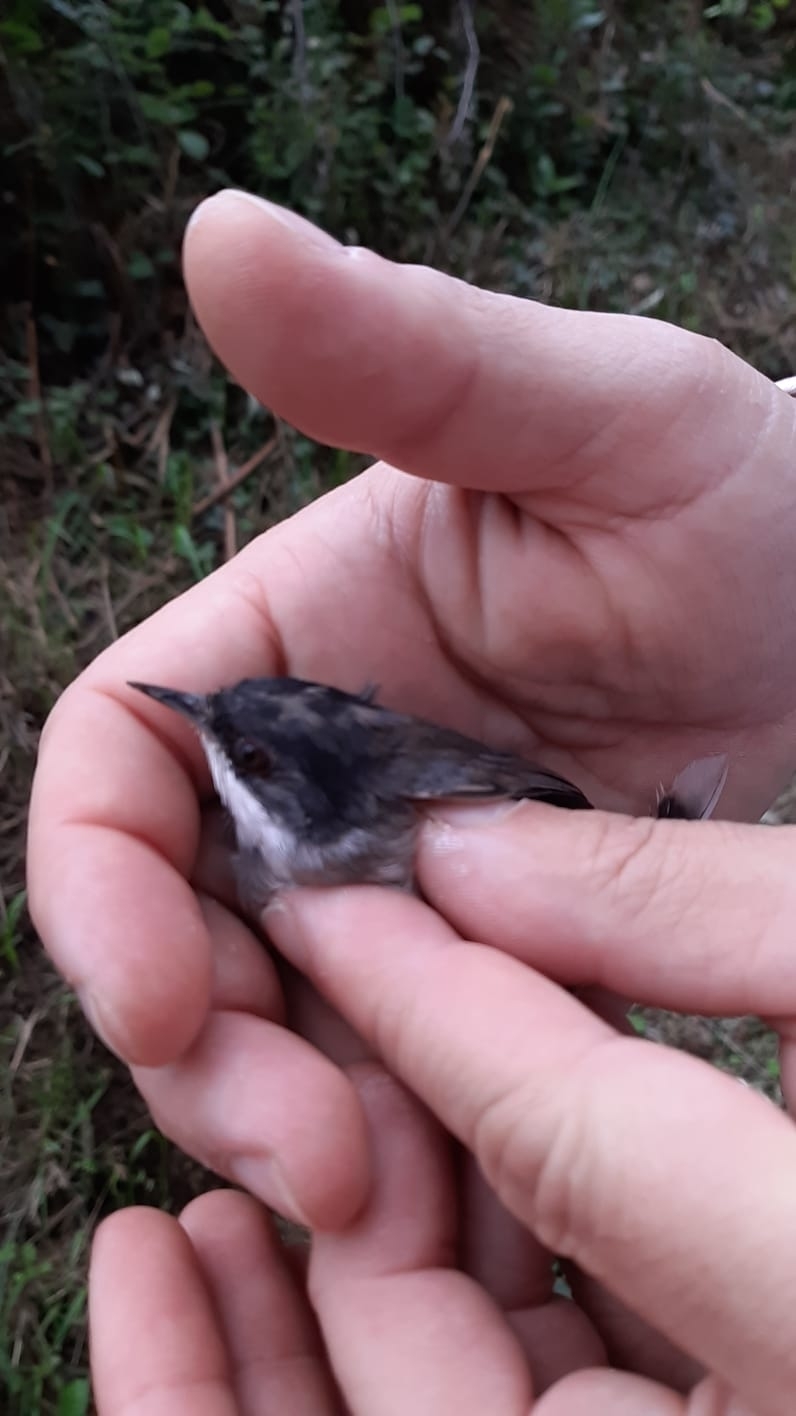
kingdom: Animalia
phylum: Chordata
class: Aves
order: Passeriformes
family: Sylviidae
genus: Curruca
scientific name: Curruca melanocephala
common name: Sardinian warbler
